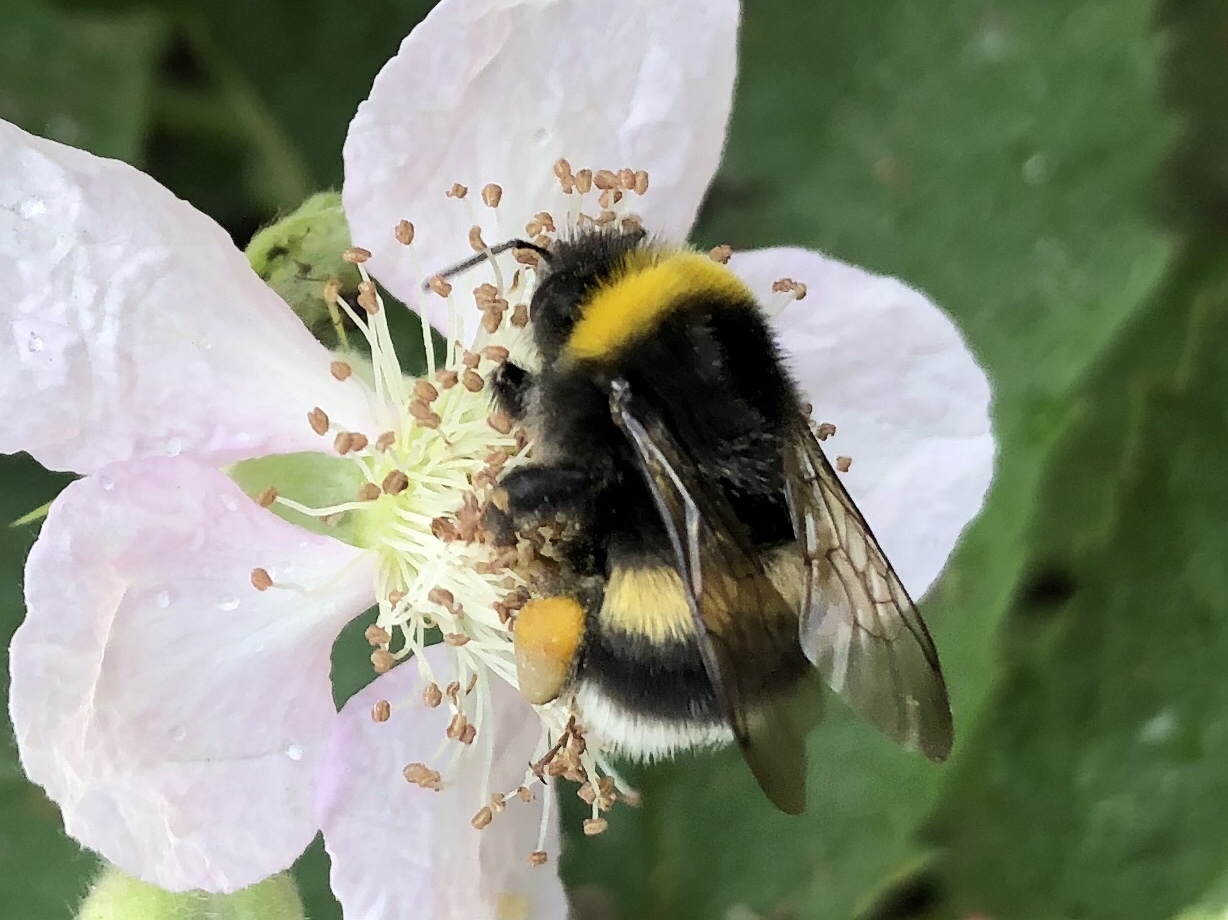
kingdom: Animalia
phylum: Arthropoda
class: Insecta
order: Hymenoptera
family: Apidae
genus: Bombus
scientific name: Bombus lucorum
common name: White-tailed bumblebee
